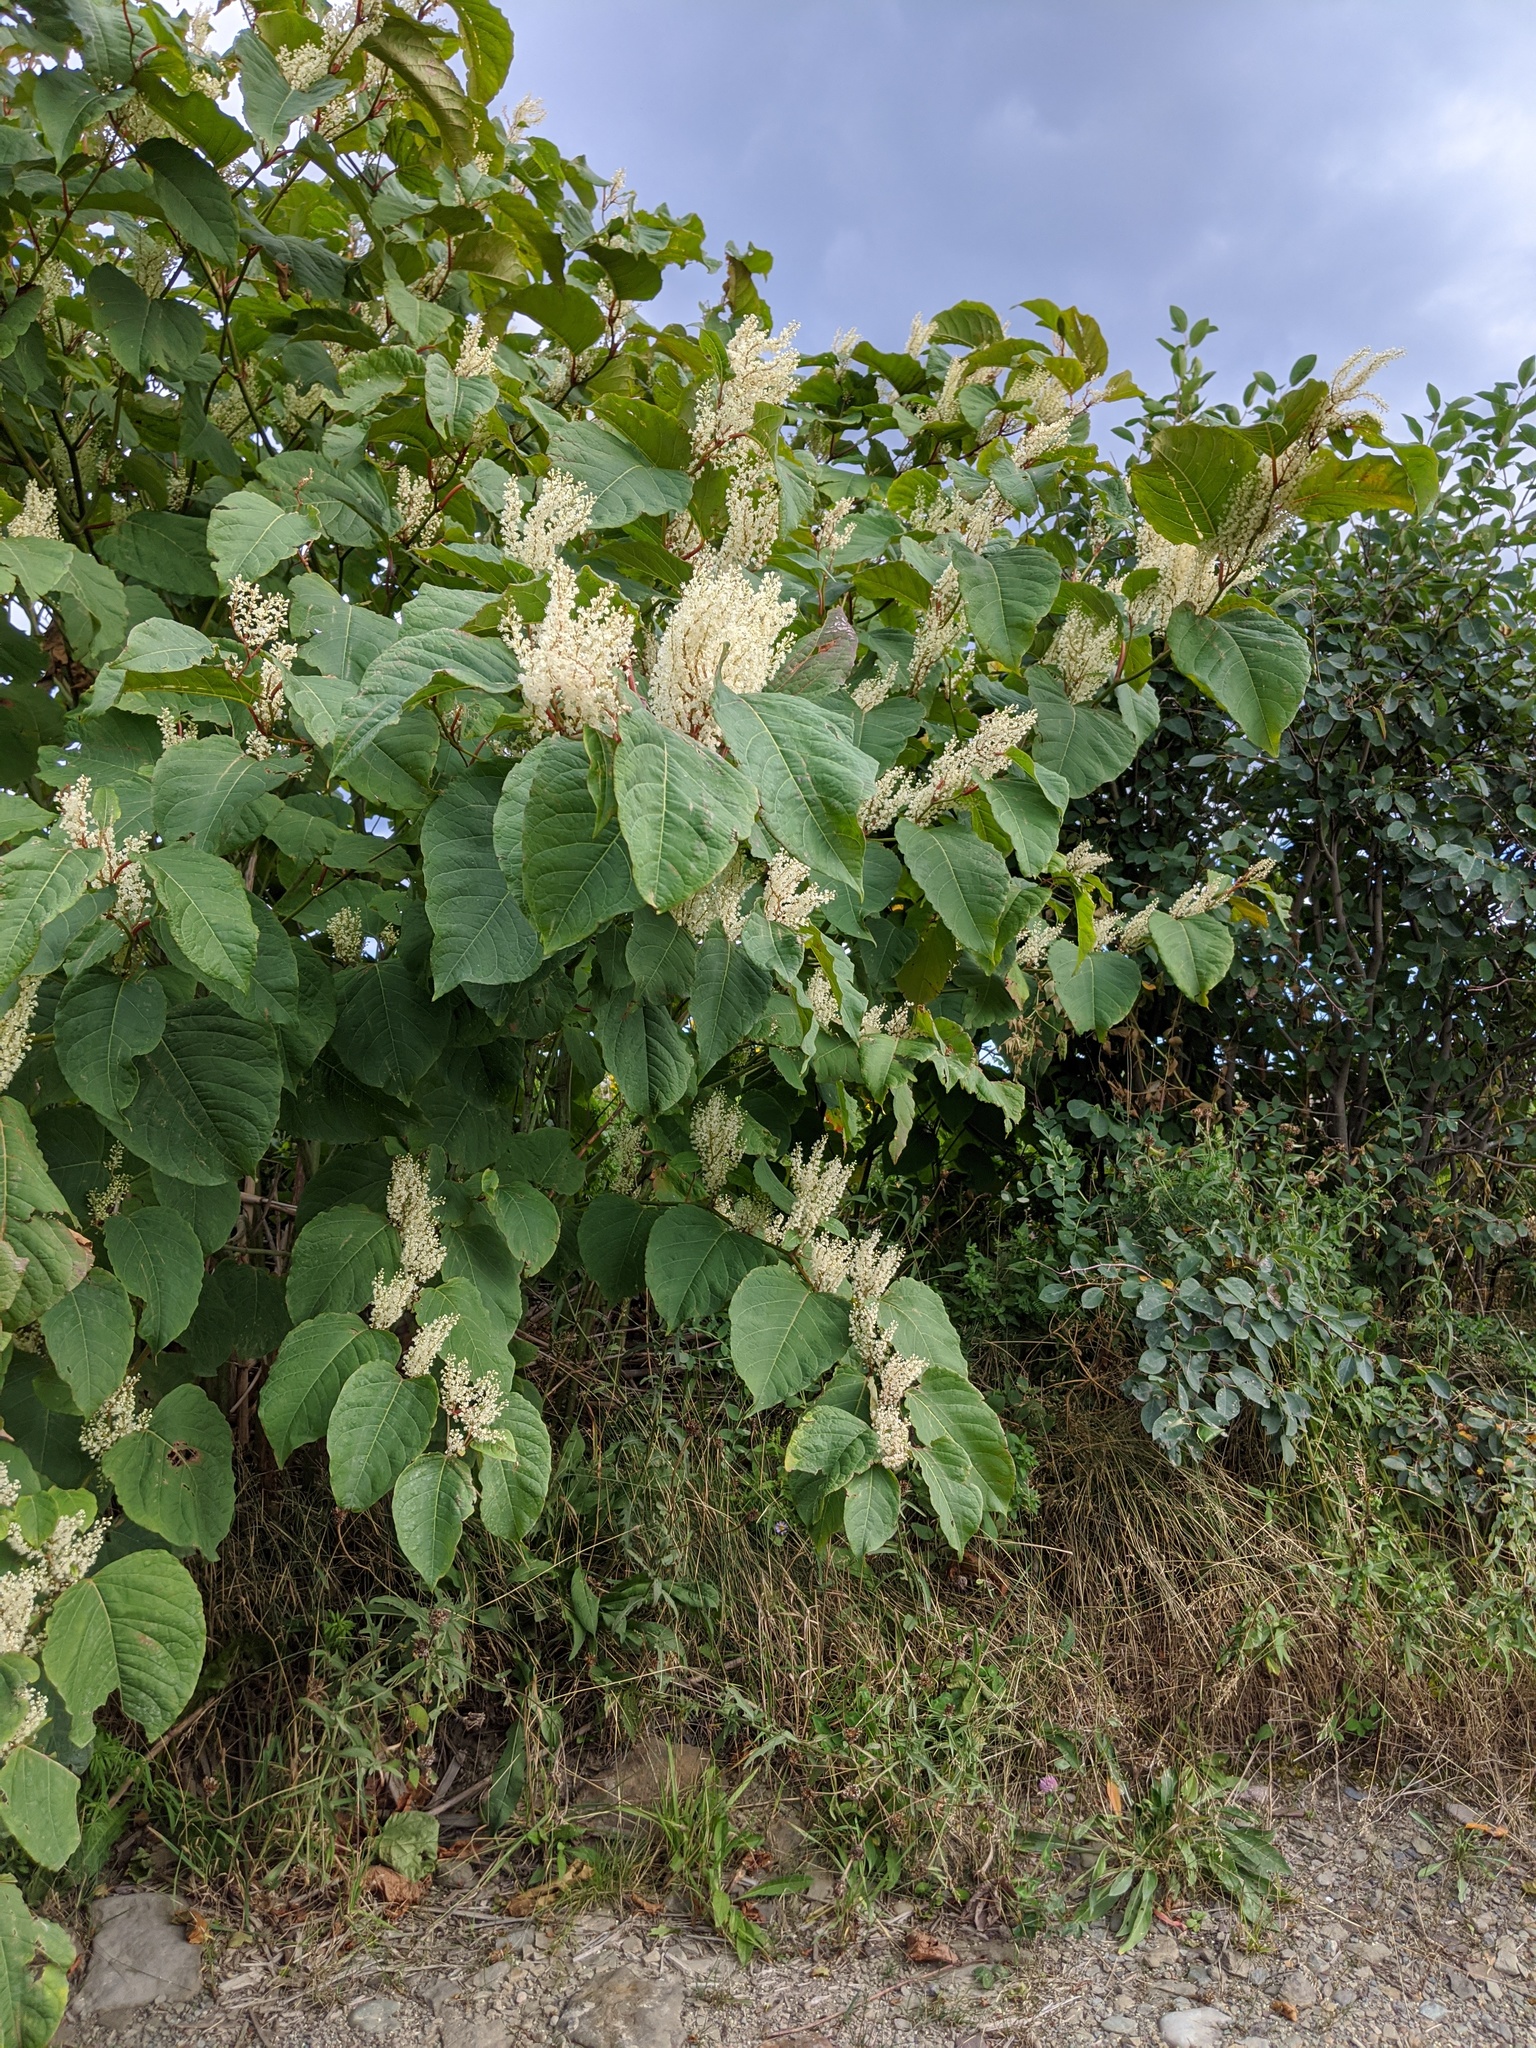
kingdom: Plantae
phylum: Tracheophyta
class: Magnoliopsida
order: Caryophyllales
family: Polygonaceae
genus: Reynoutria
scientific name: Reynoutria japonica
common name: Japanese knotweed
